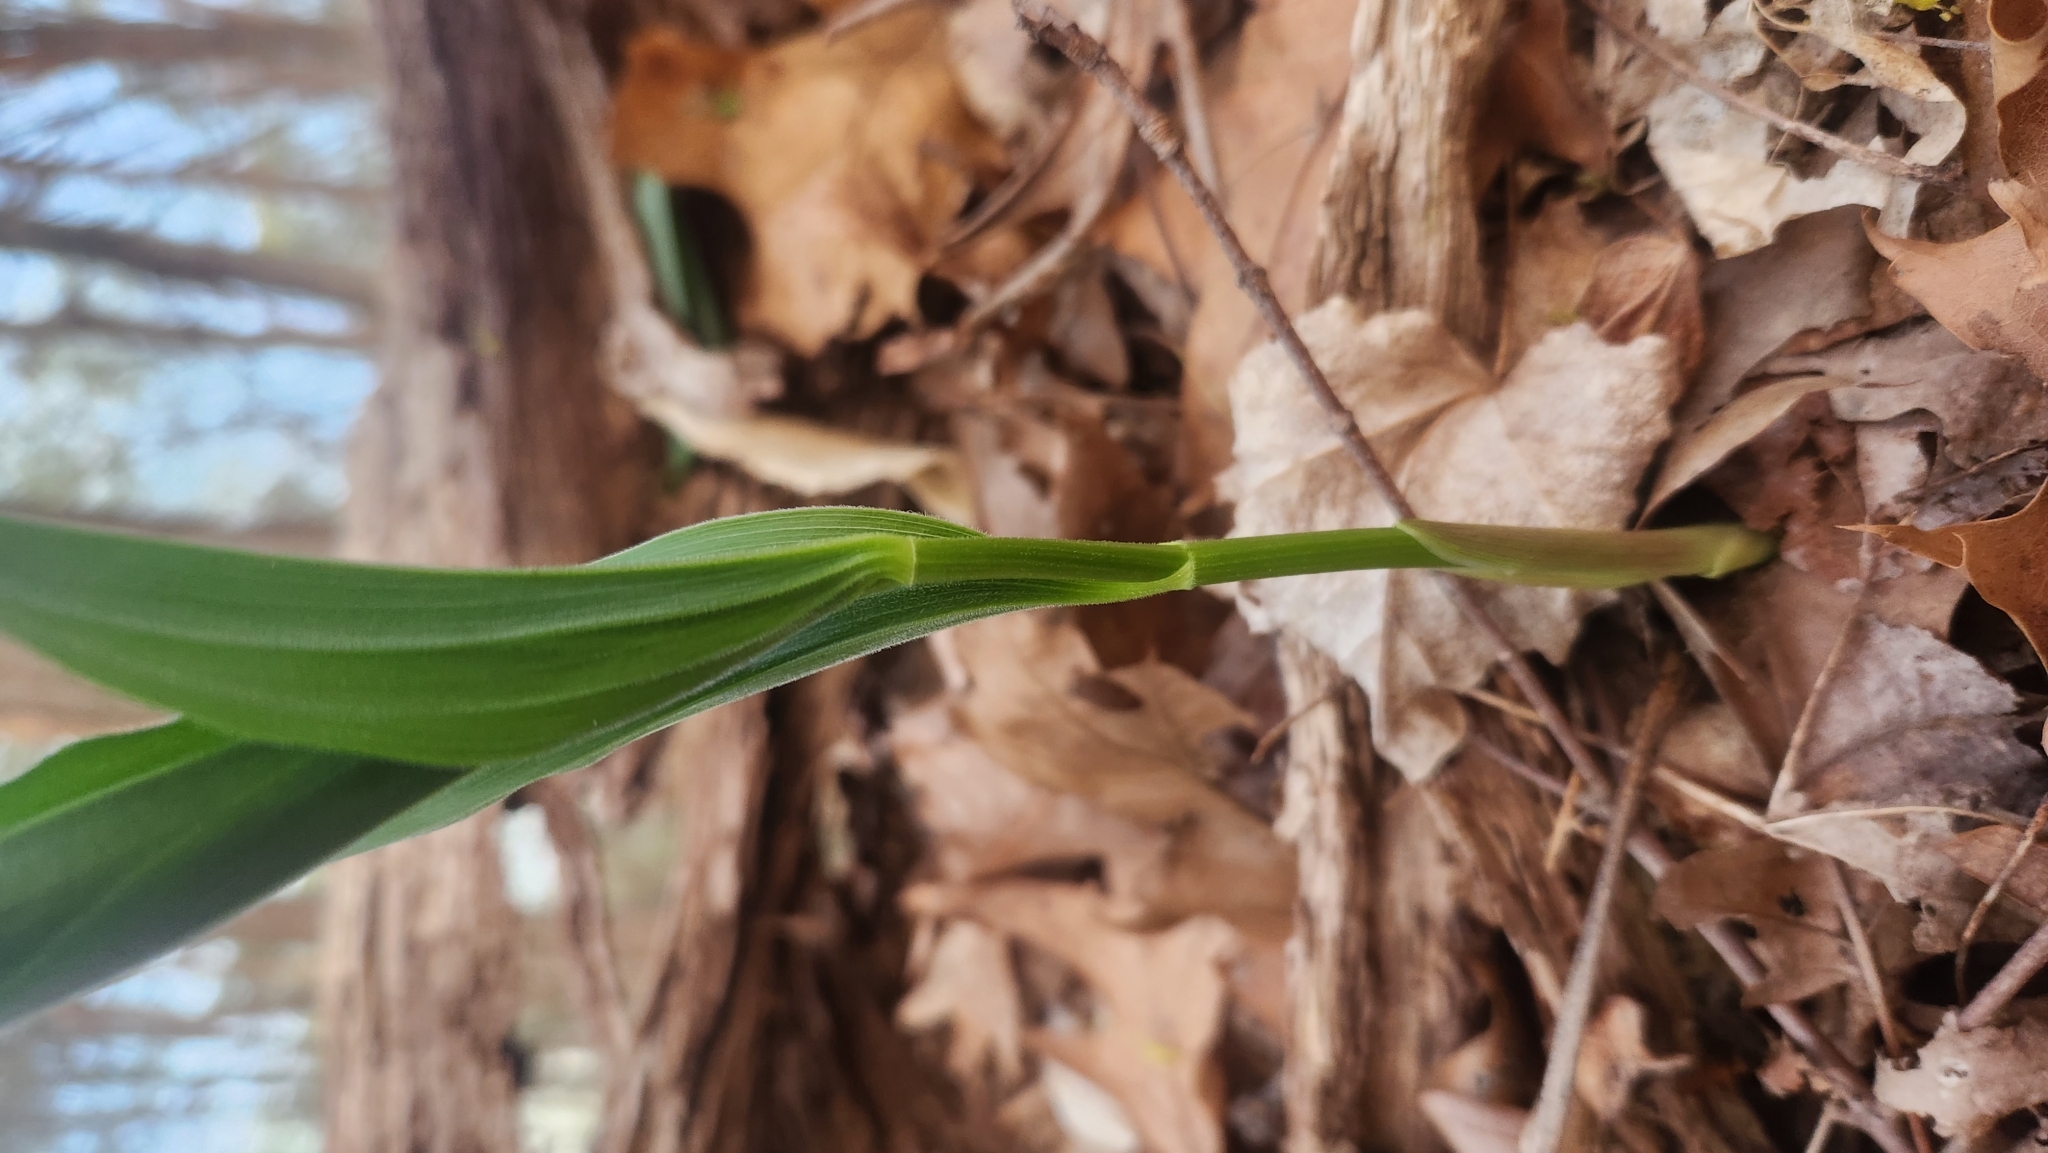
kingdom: Plantae
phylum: Tracheophyta
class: Liliopsida
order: Asparagales
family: Asparagaceae
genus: Maianthemum
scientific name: Maianthemum racemosum
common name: False spikenard
